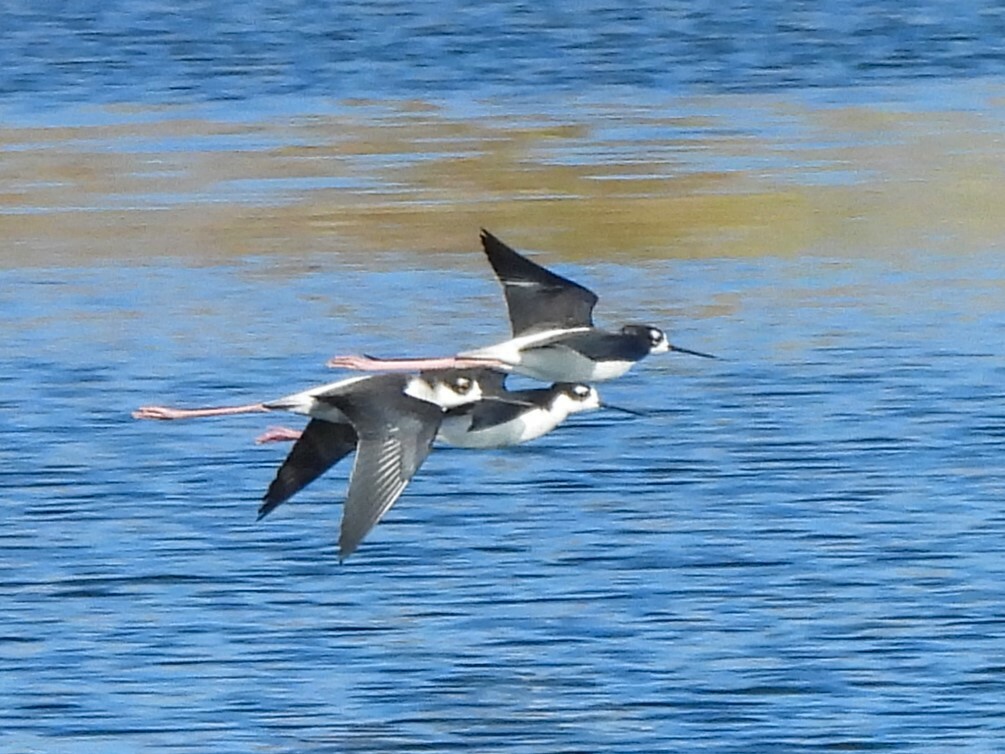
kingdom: Animalia
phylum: Chordata
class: Aves
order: Charadriiformes
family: Recurvirostridae
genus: Himantopus
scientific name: Himantopus mexicanus
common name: Black-necked stilt
